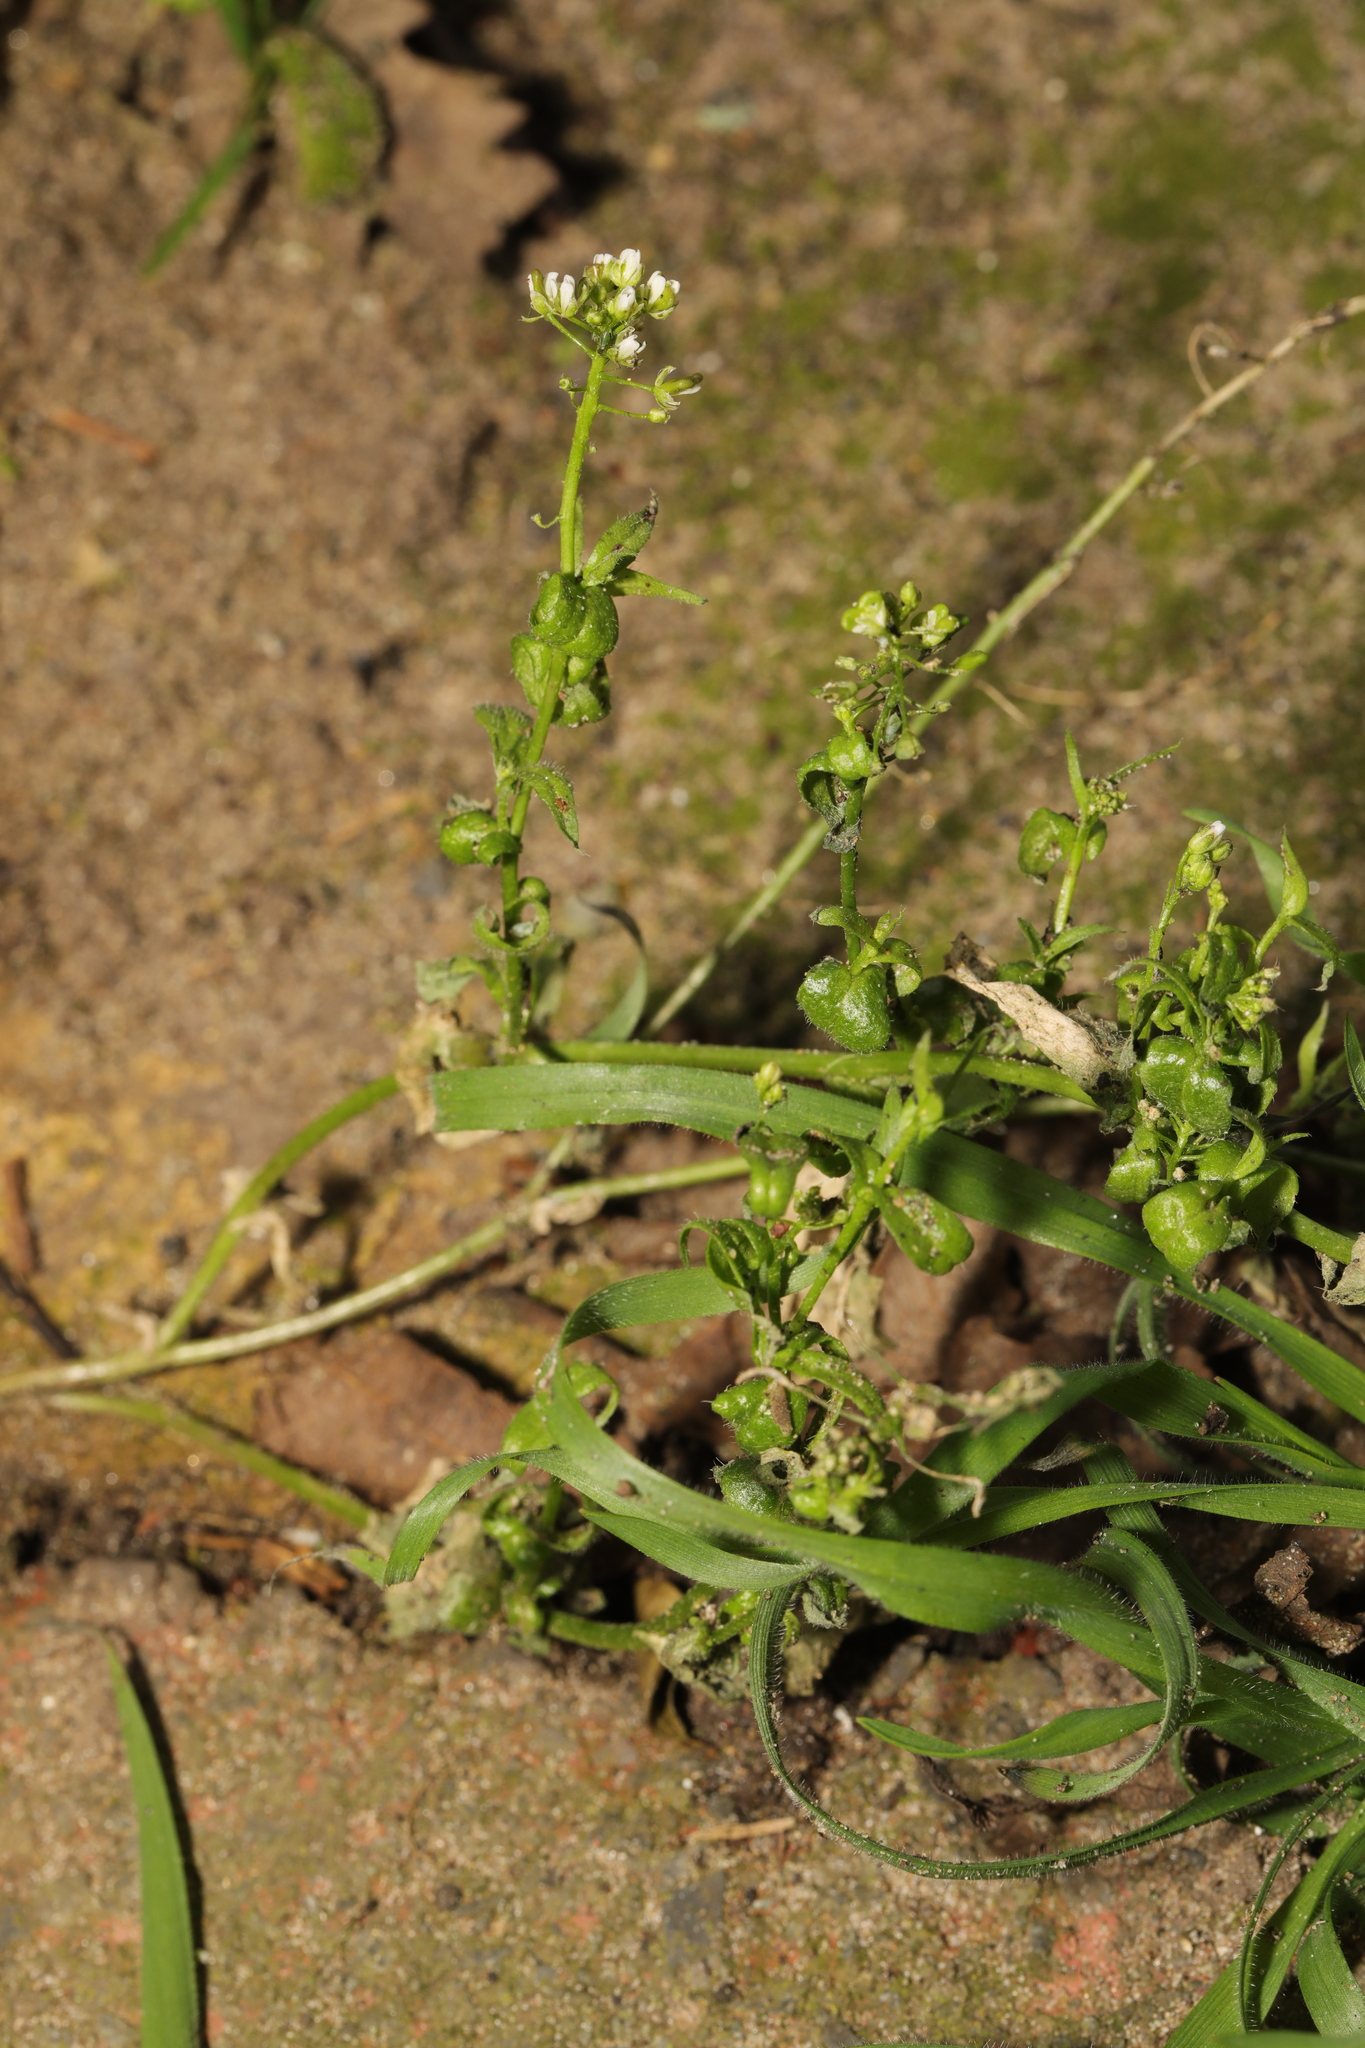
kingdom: Plantae
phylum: Tracheophyta
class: Magnoliopsida
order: Brassicales
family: Brassicaceae
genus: Capsella
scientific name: Capsella bursa-pastoris
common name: Shepherd's purse
